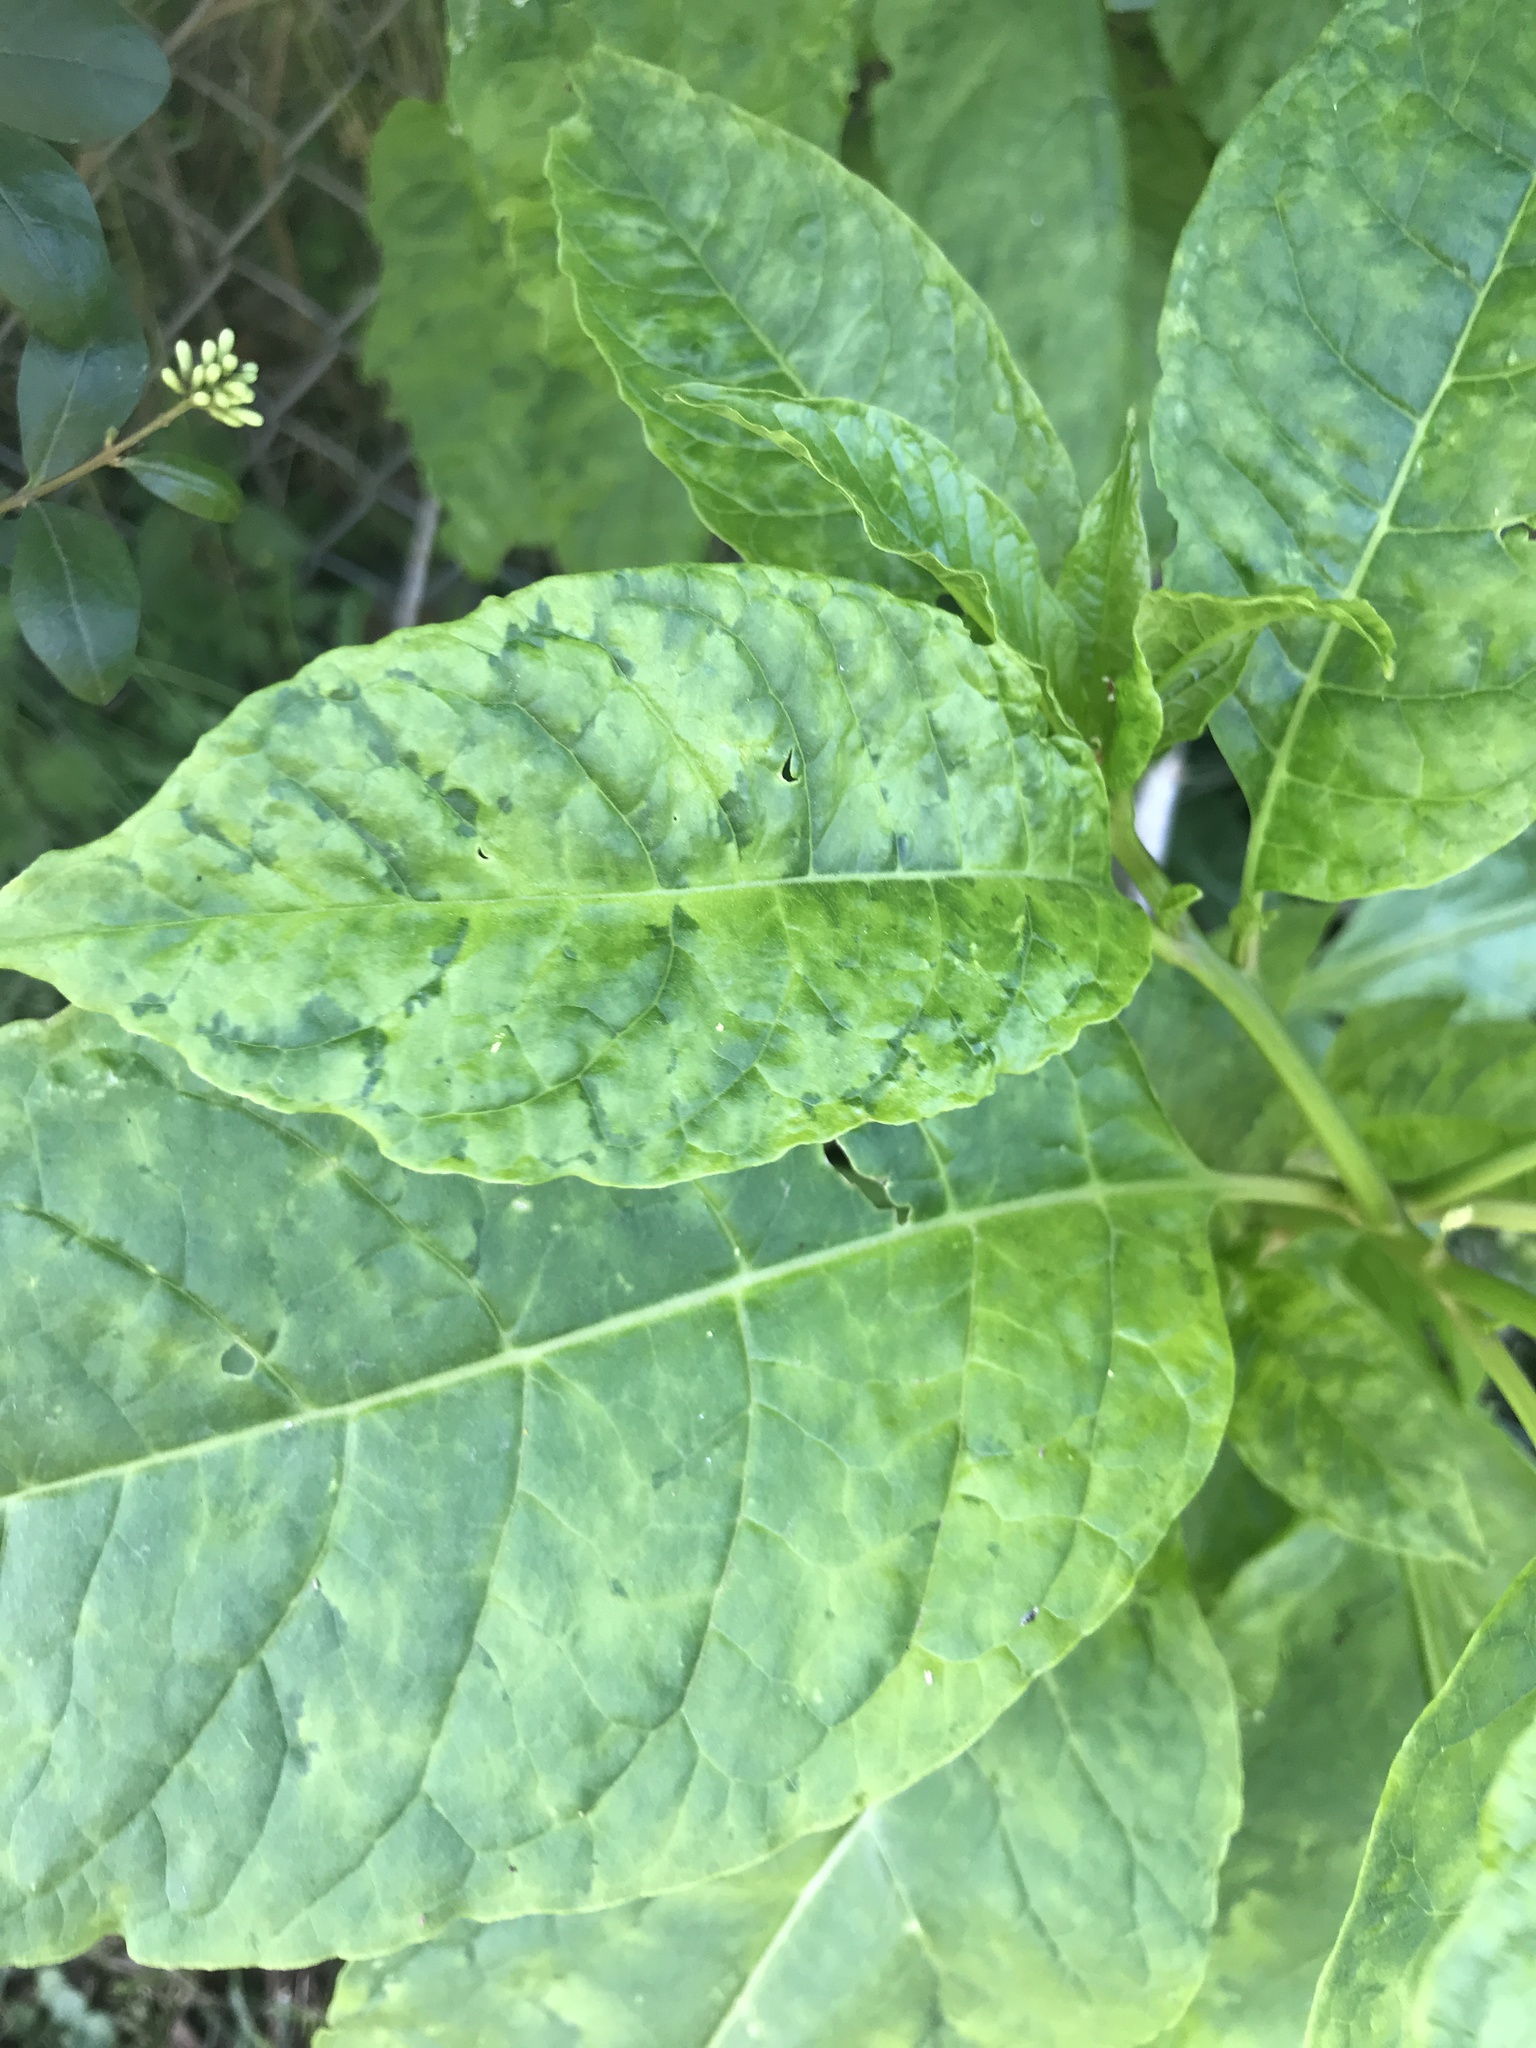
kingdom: Viruses
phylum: Pisuviricota
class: Stelpaviricetes
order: Patatavirales
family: Potyviridae
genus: Potyvirus
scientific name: Potyvirus Pokeweed mosaic virus
